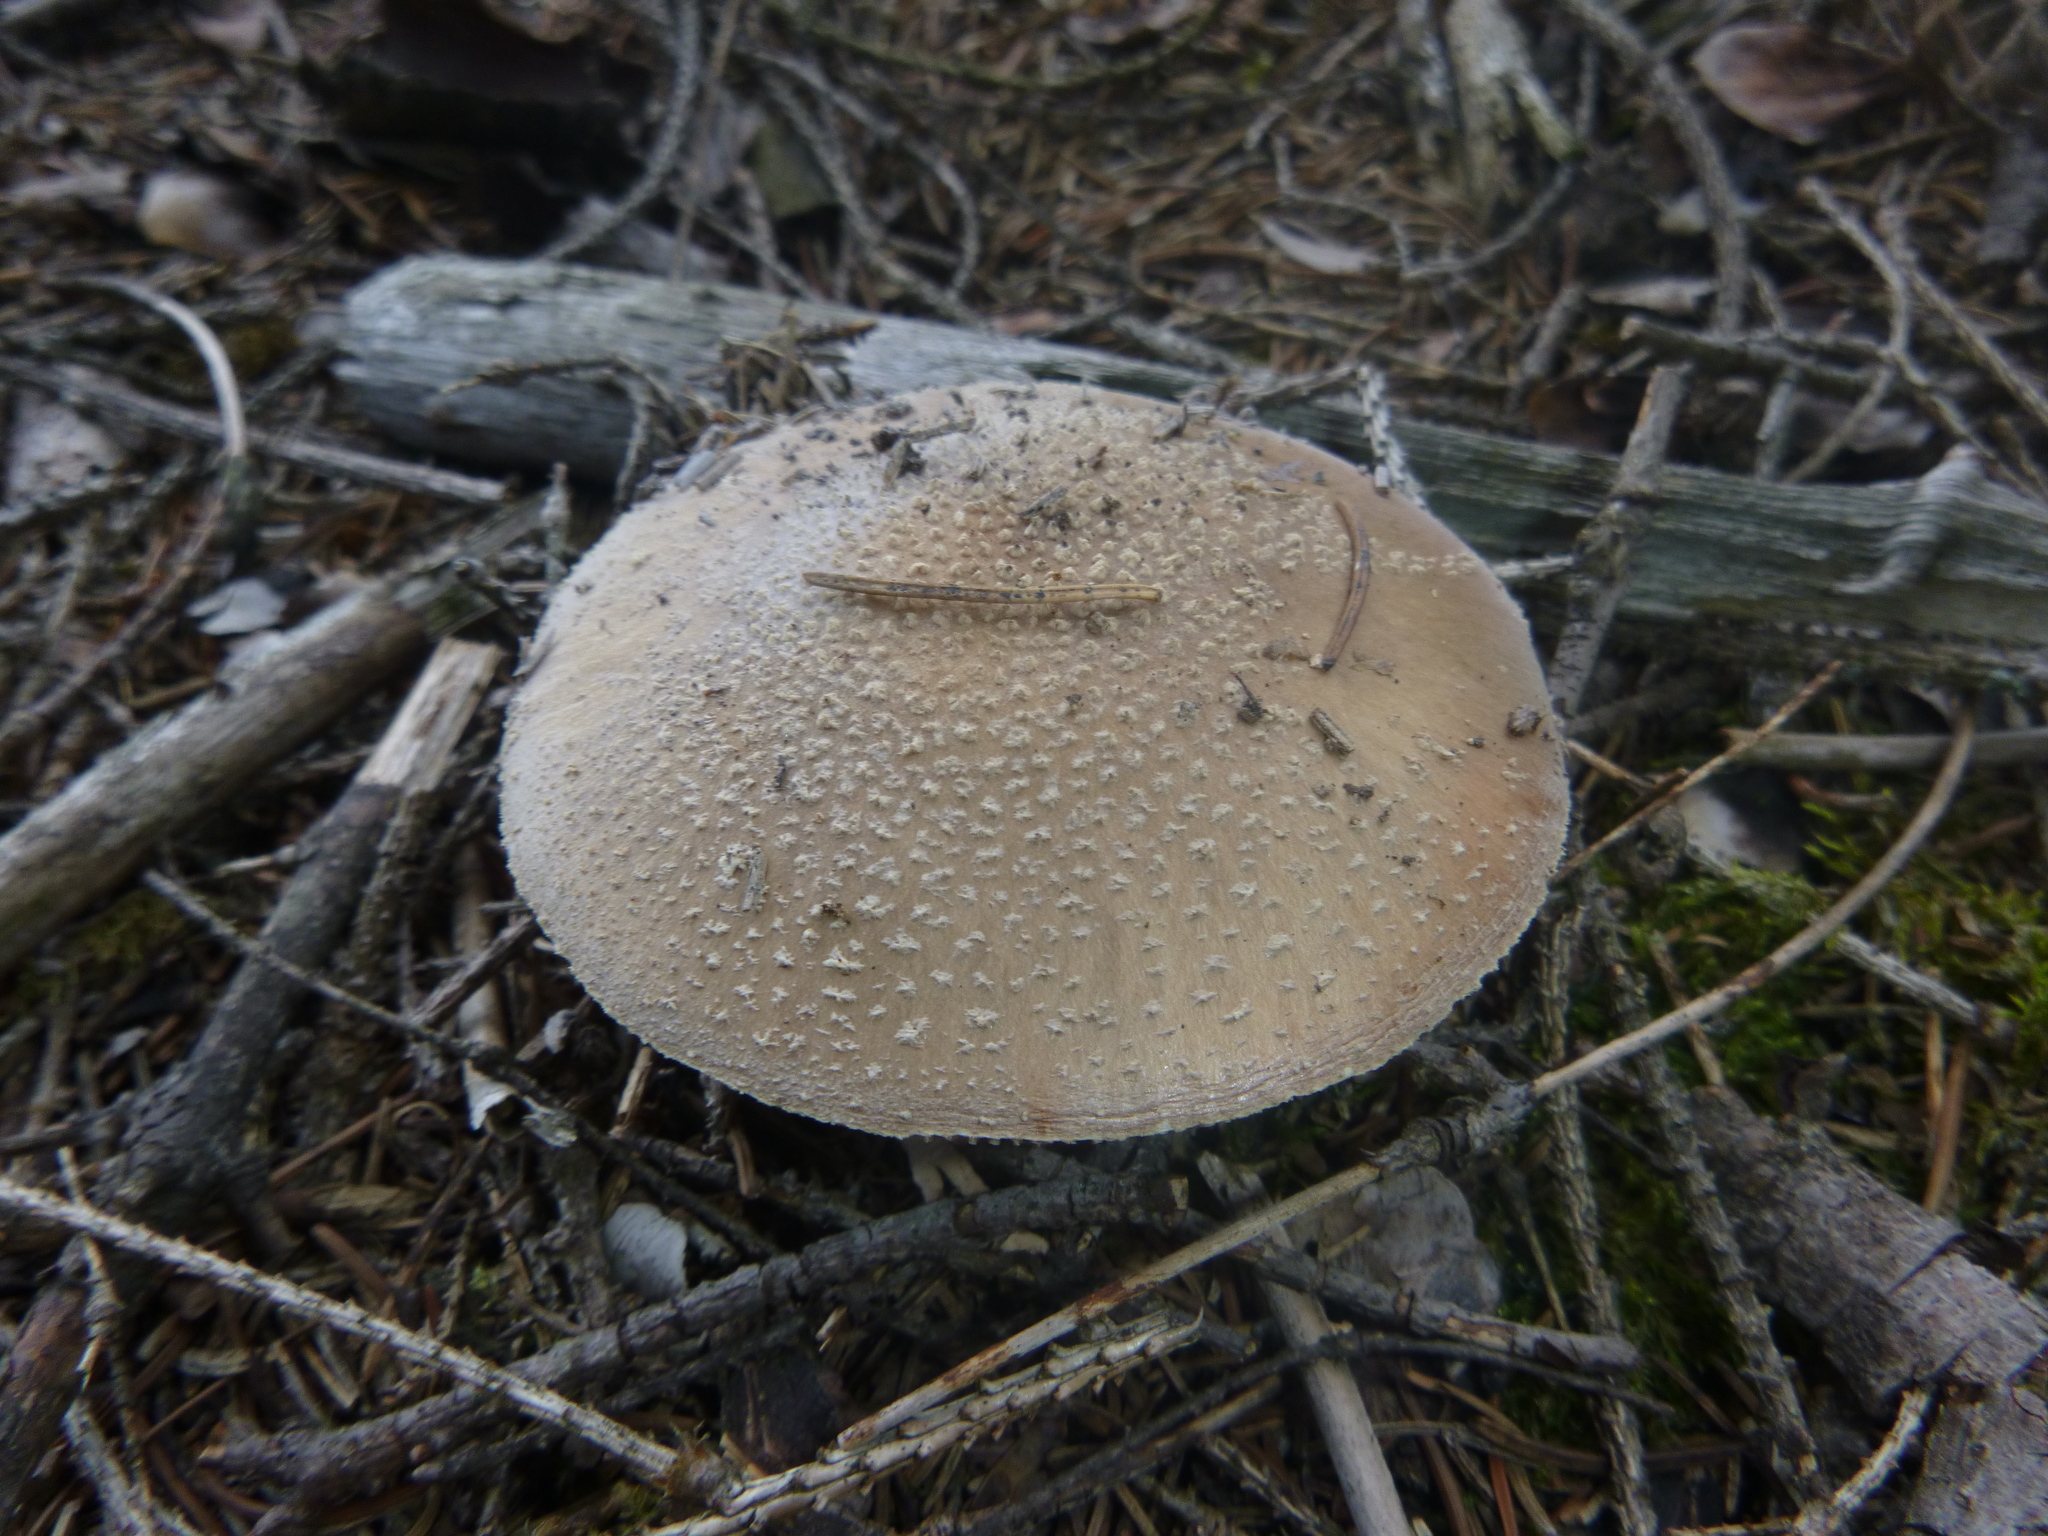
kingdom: Fungi
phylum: Basidiomycota
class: Agaricomycetes
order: Agaricales
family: Amanitaceae
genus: Amanita
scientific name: Amanita rubescens
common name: Blusher
